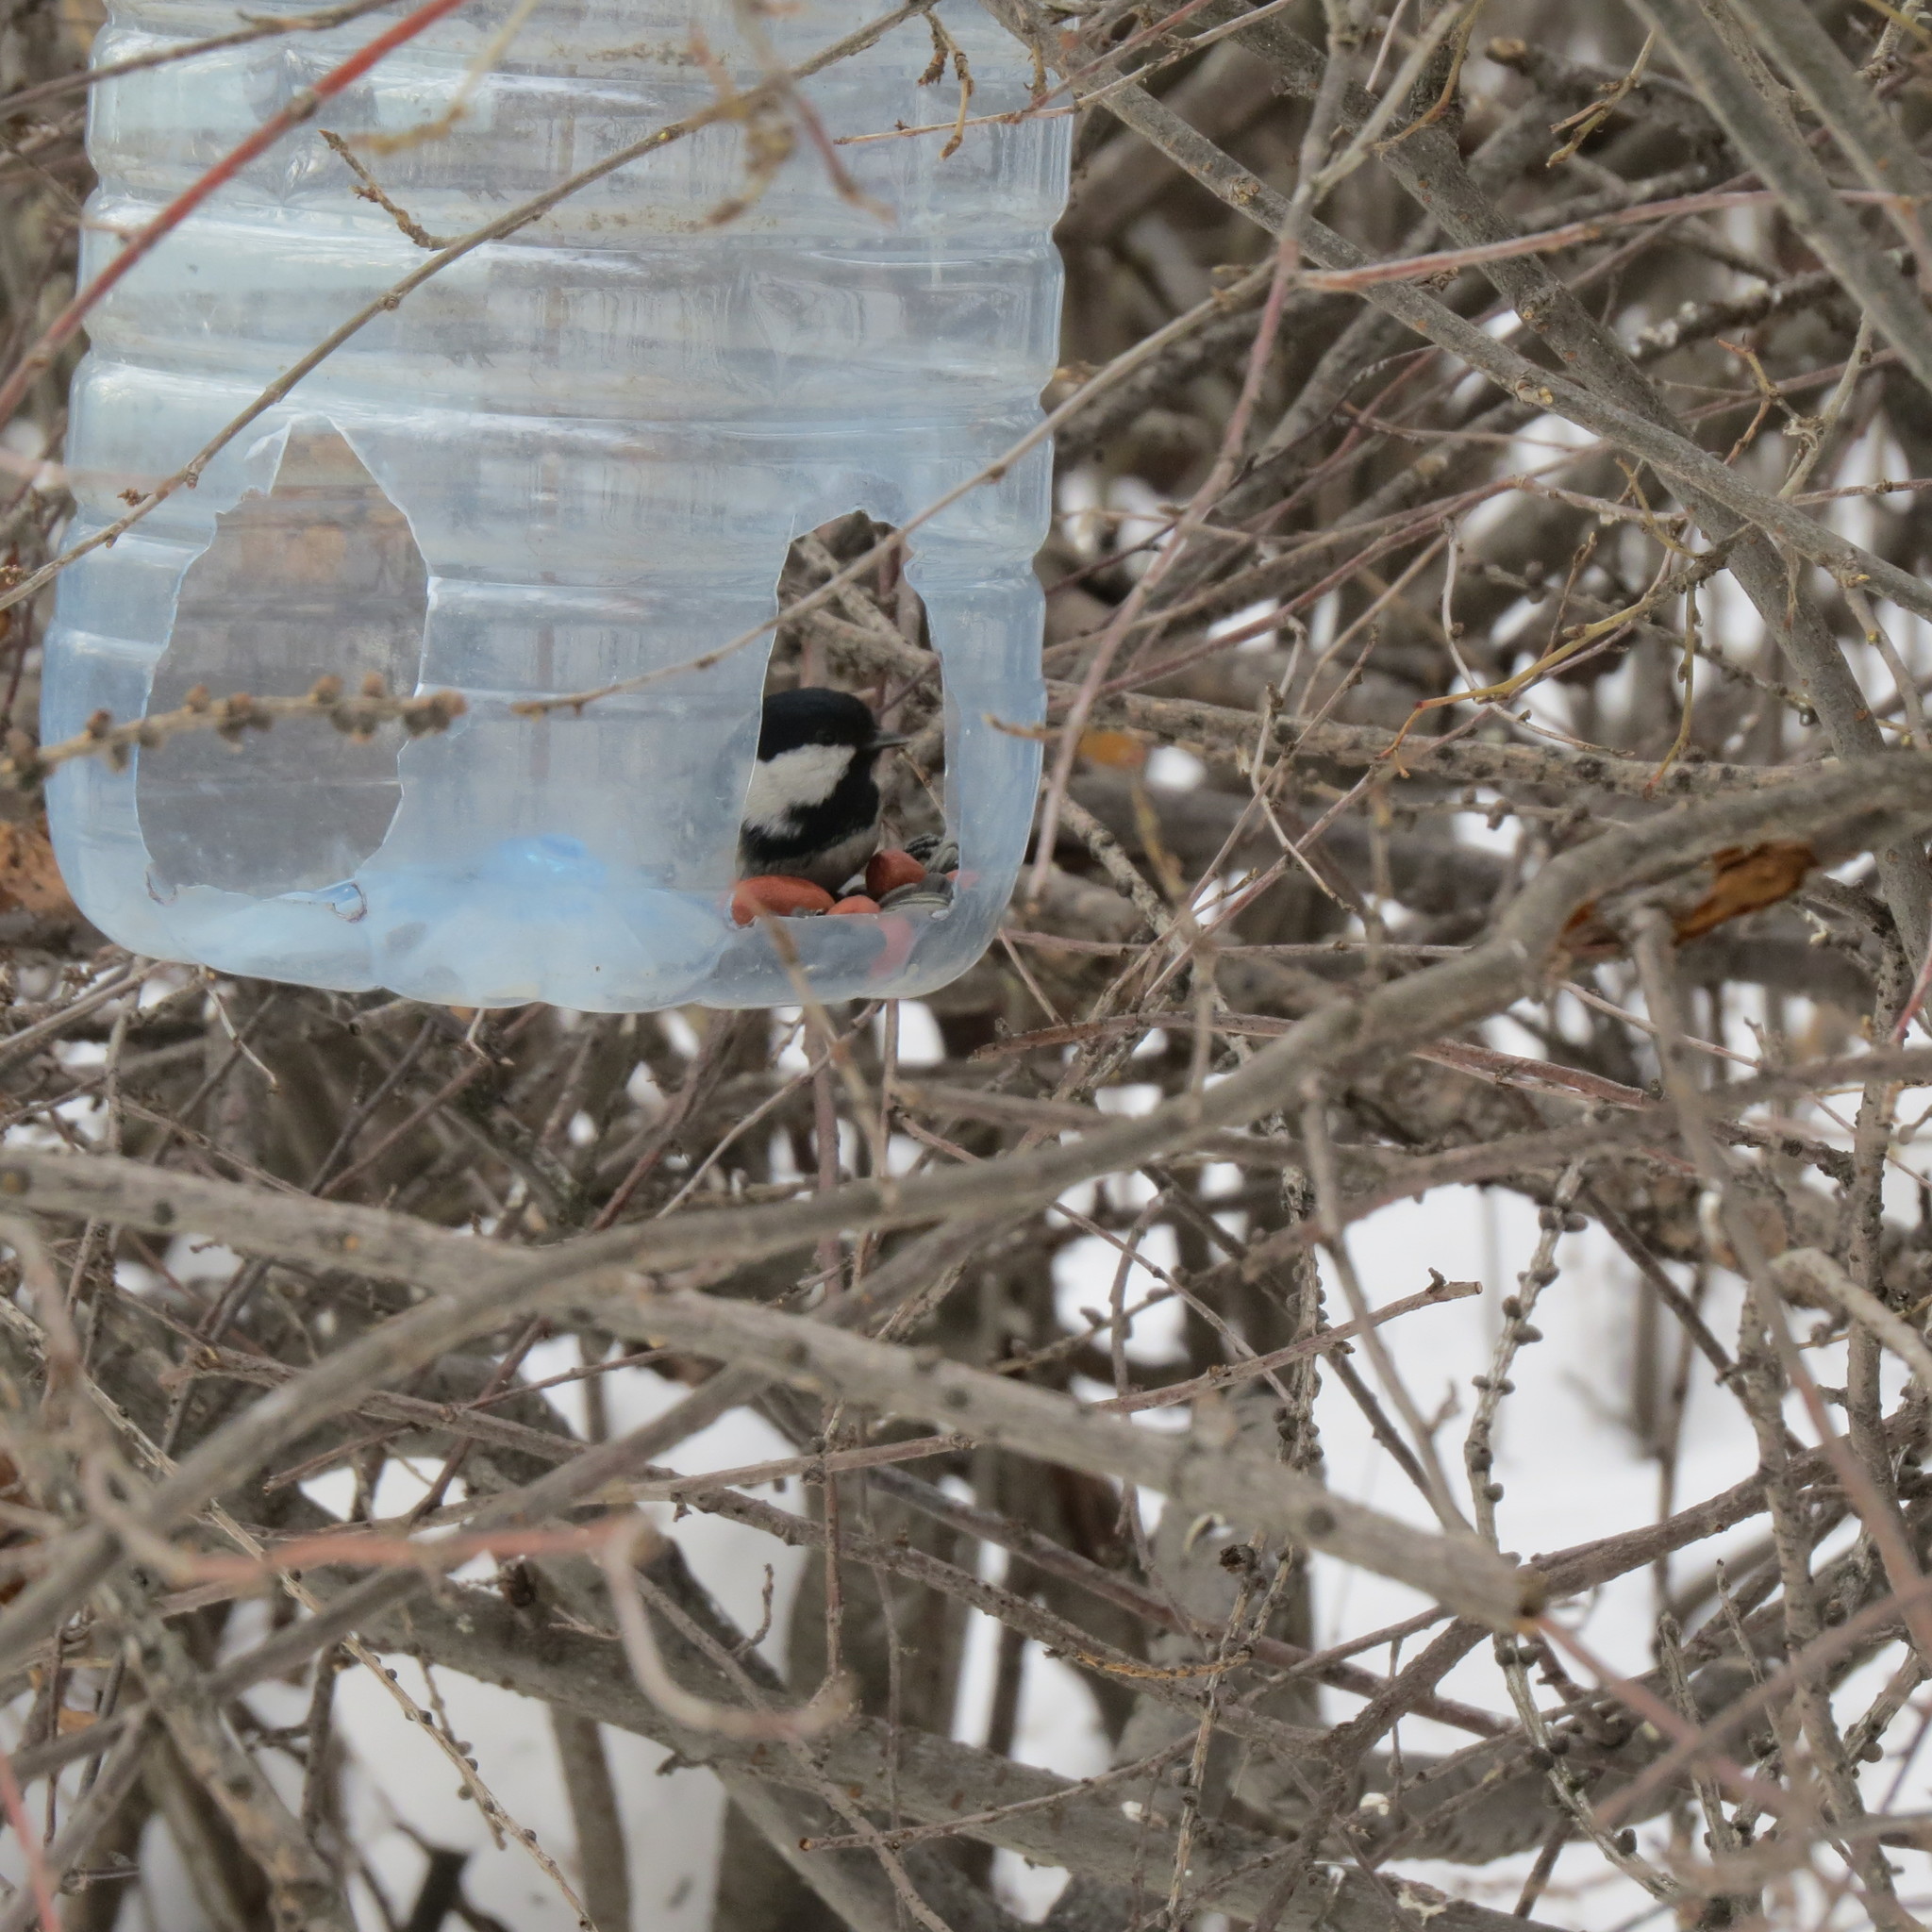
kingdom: Animalia
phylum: Chordata
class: Aves
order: Passeriformes
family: Paridae
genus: Periparus
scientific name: Periparus ater
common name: Coal tit
